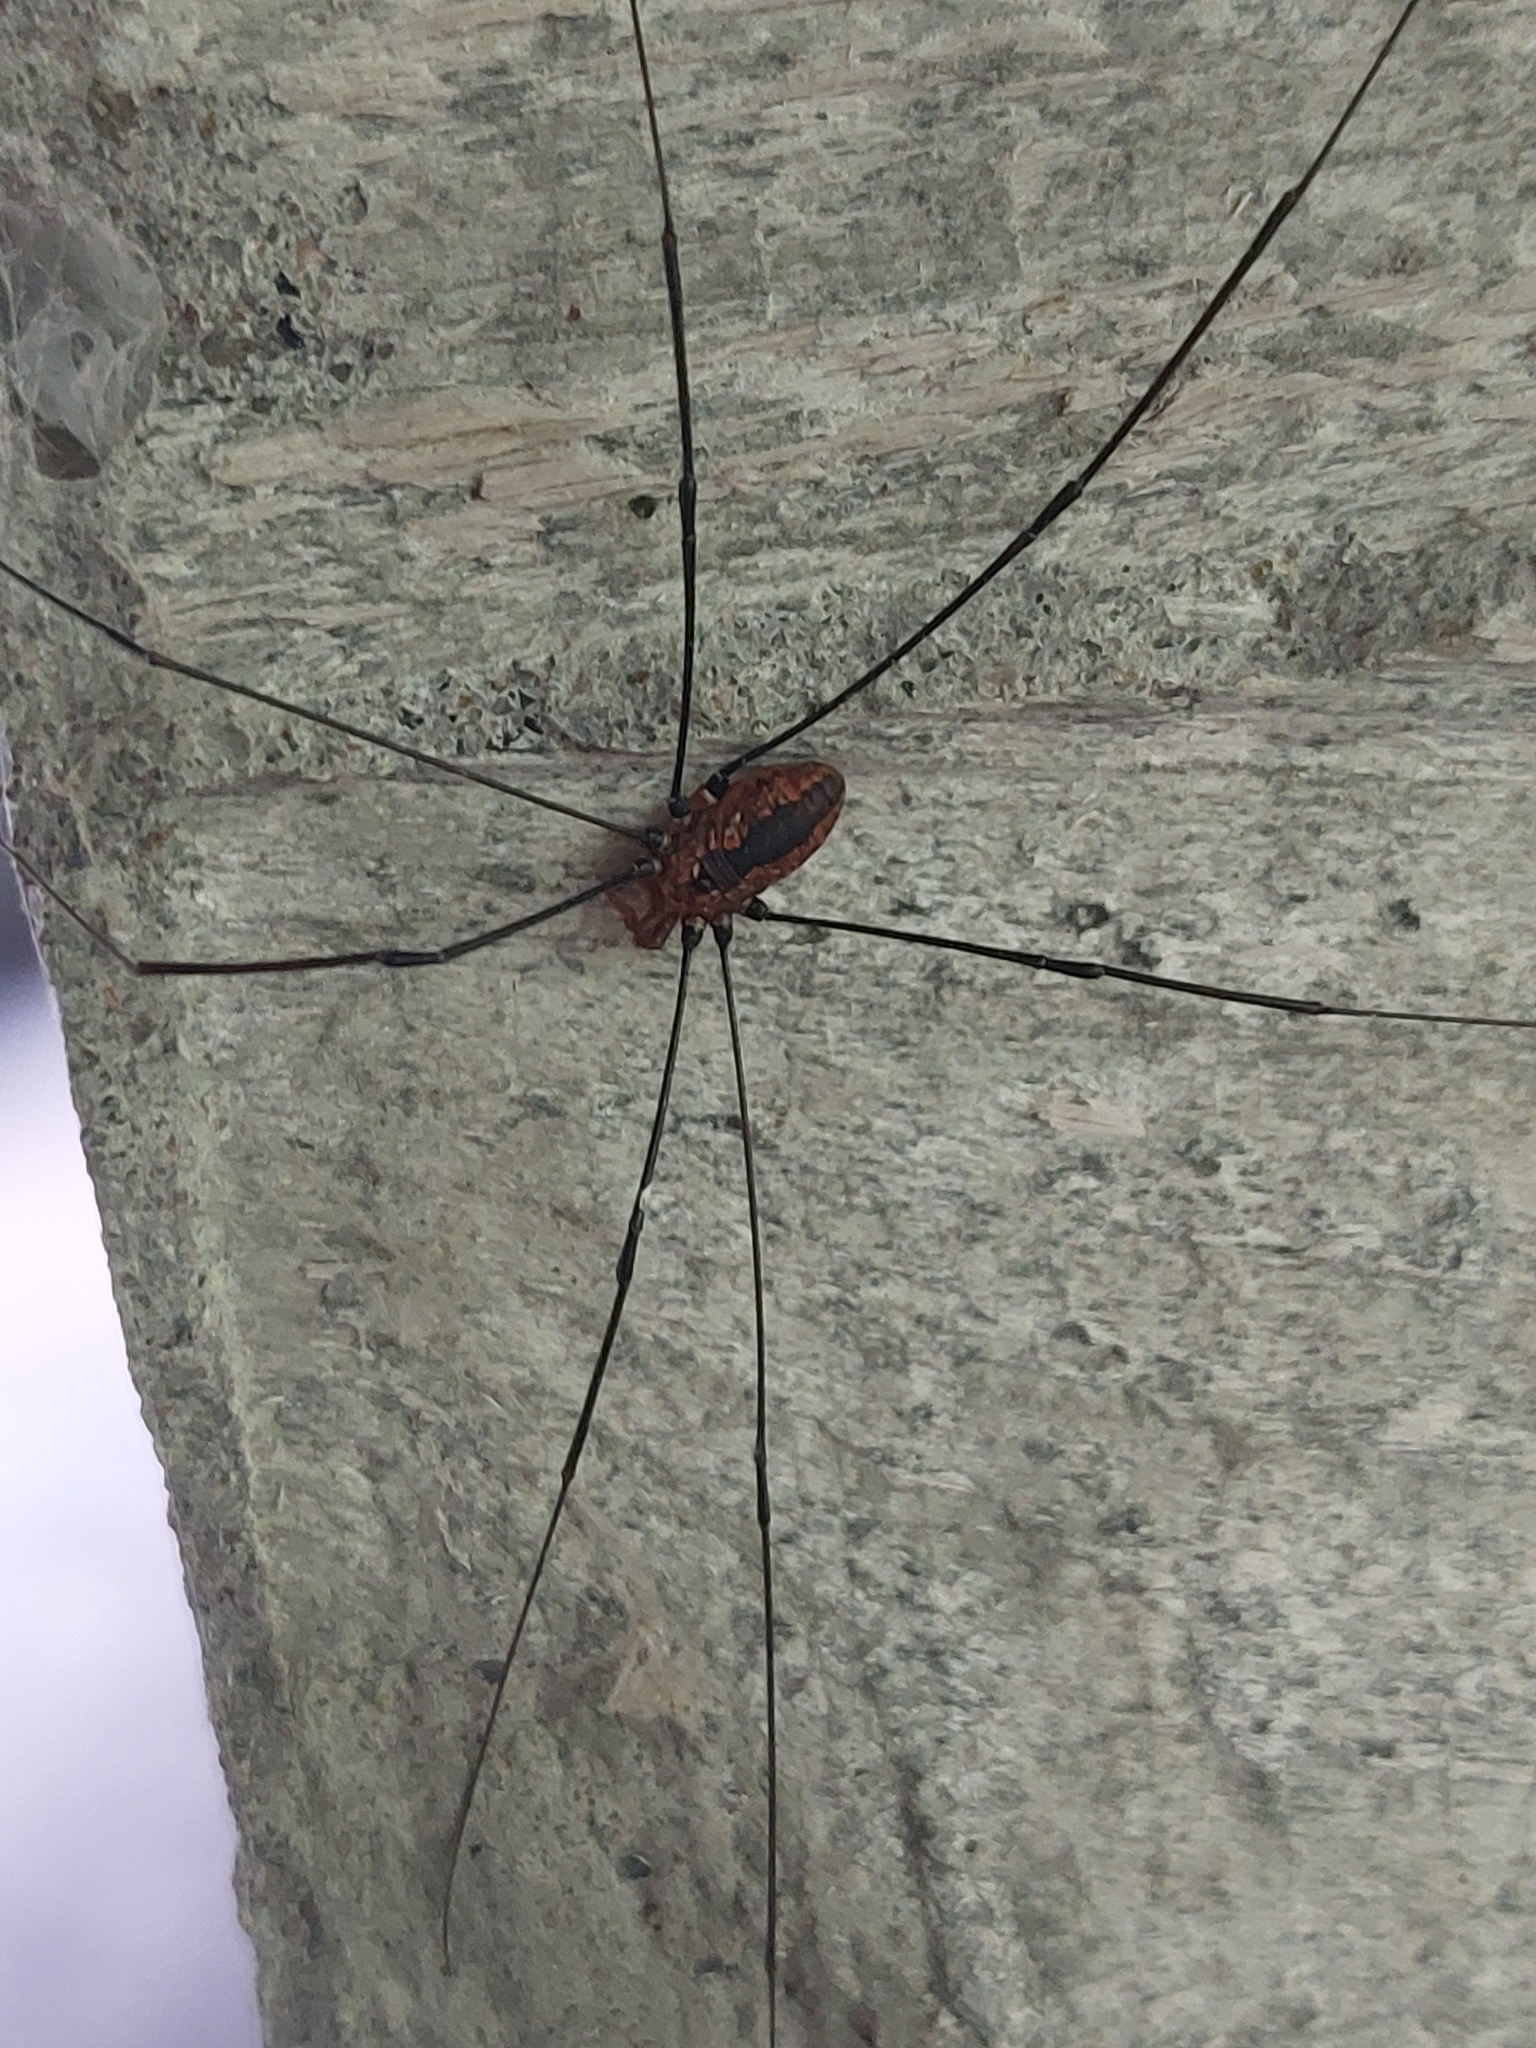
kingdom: Animalia
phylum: Arthropoda
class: Arachnida
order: Opiliones
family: Sclerosomatidae
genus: Leiobunum
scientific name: Leiobunum vittatum
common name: Eastern harvestman
